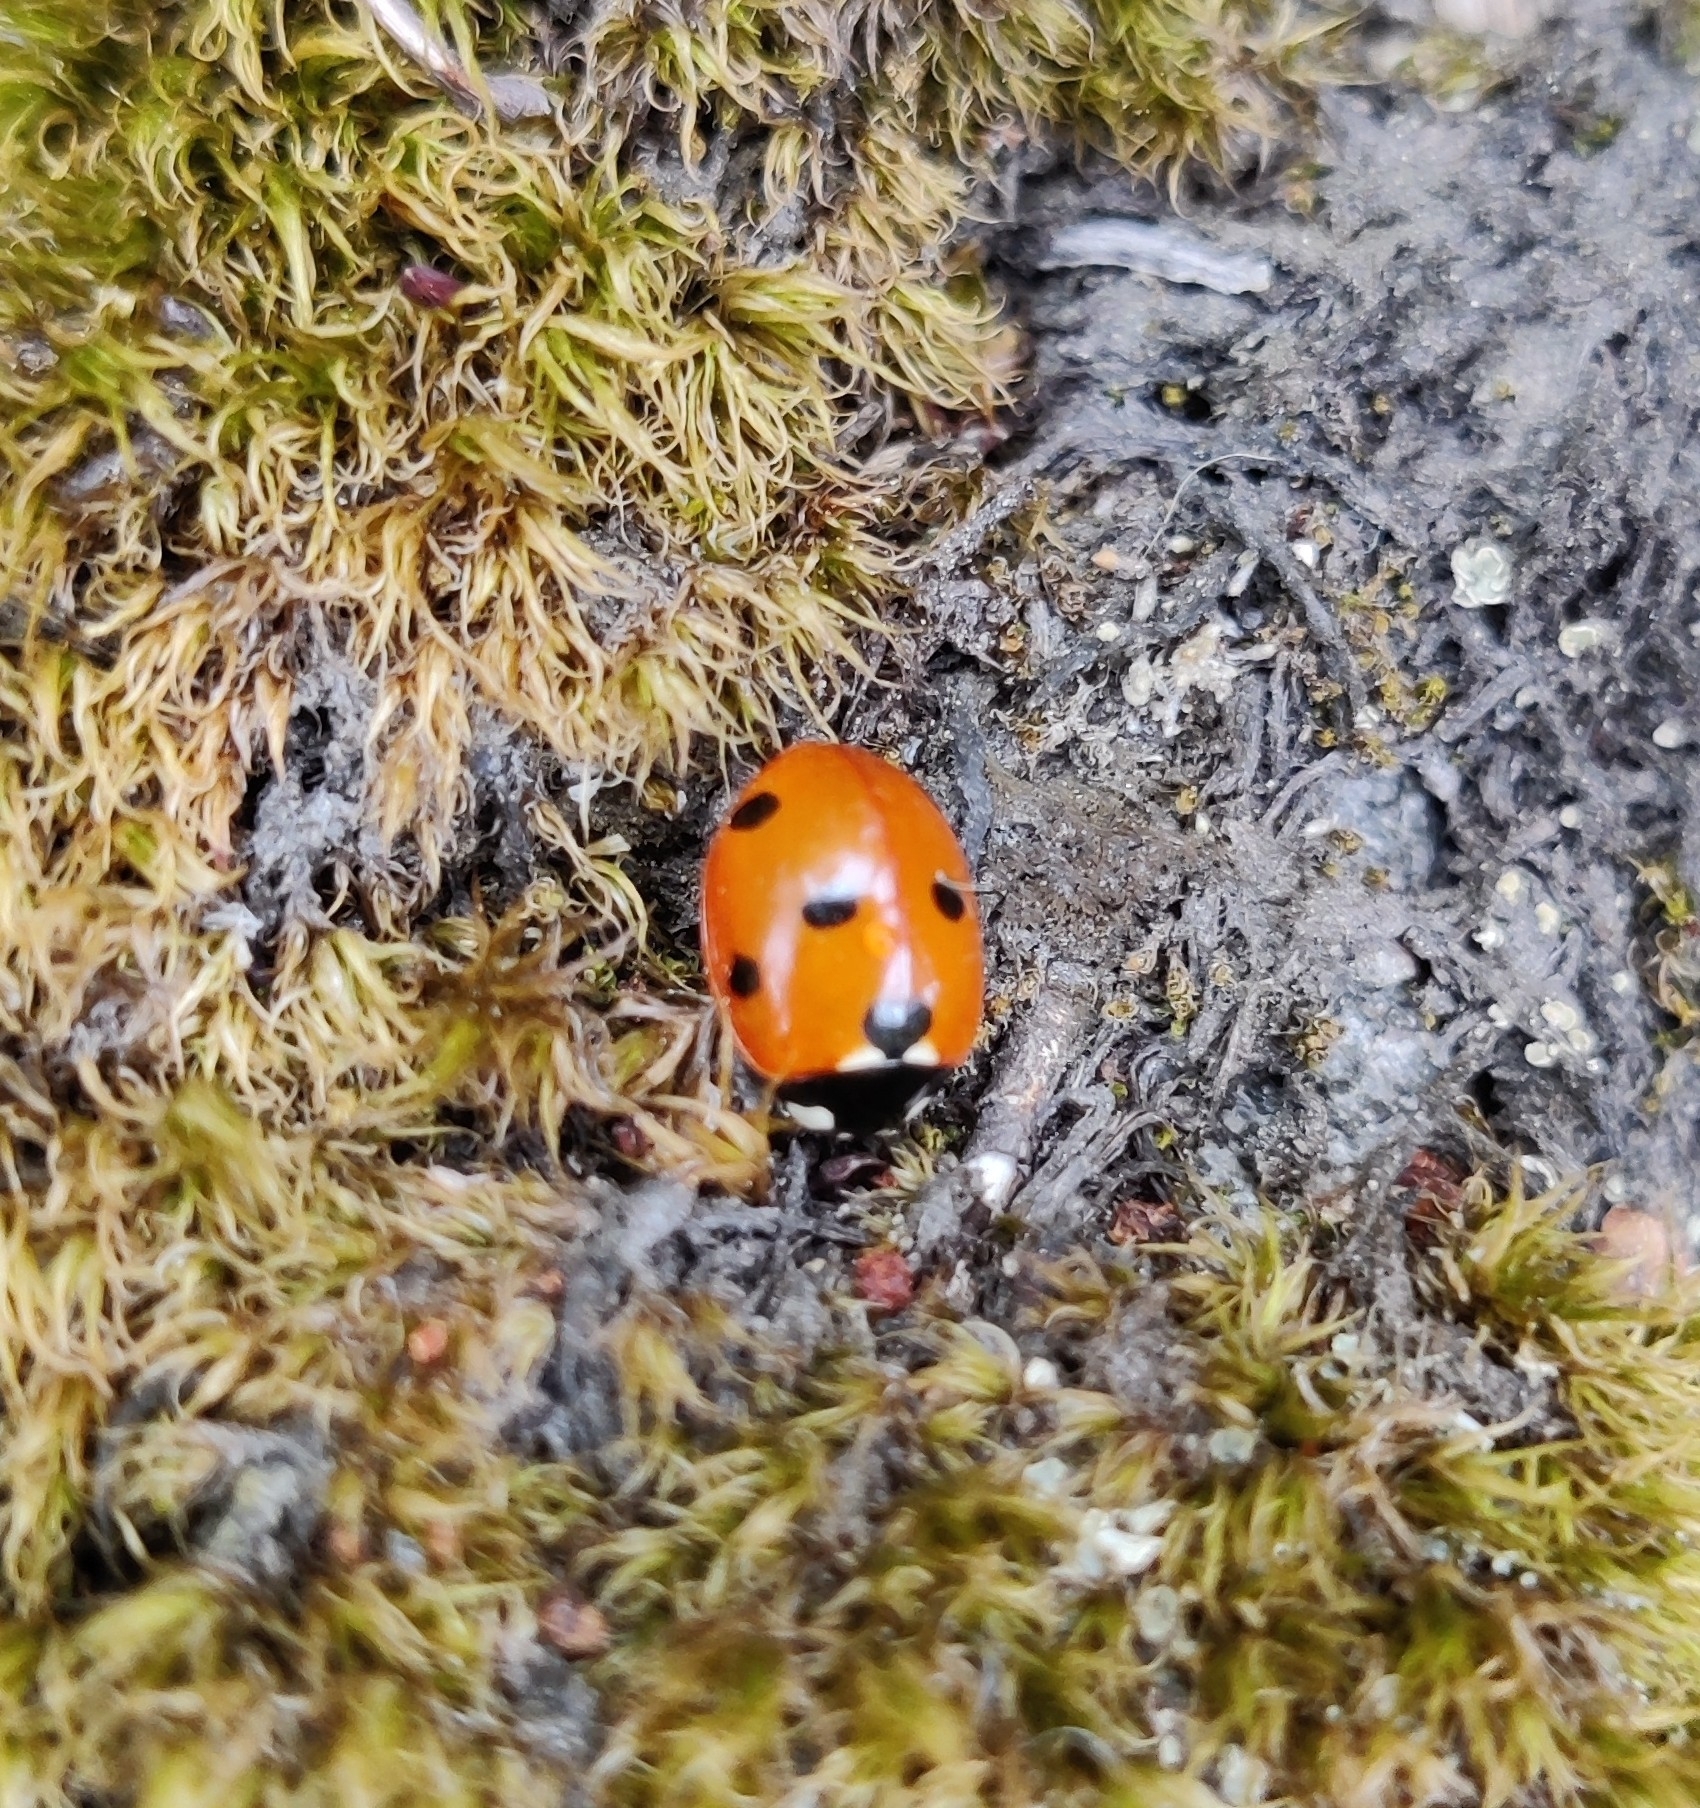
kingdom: Animalia
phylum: Arthropoda
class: Insecta
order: Coleoptera
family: Coccinellidae
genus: Coccinella
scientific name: Coccinella septempunctata
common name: Sevenspotted lady beetle
